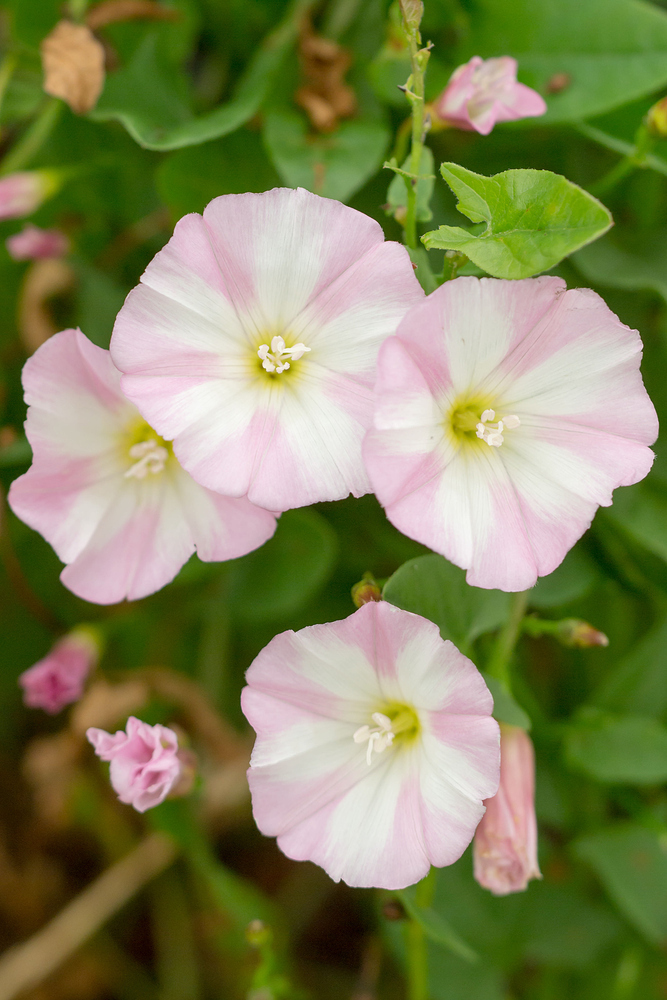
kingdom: Plantae
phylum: Tracheophyta
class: Magnoliopsida
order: Solanales
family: Convolvulaceae
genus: Convolvulus
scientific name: Convolvulus arvensis
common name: Field bindweed
